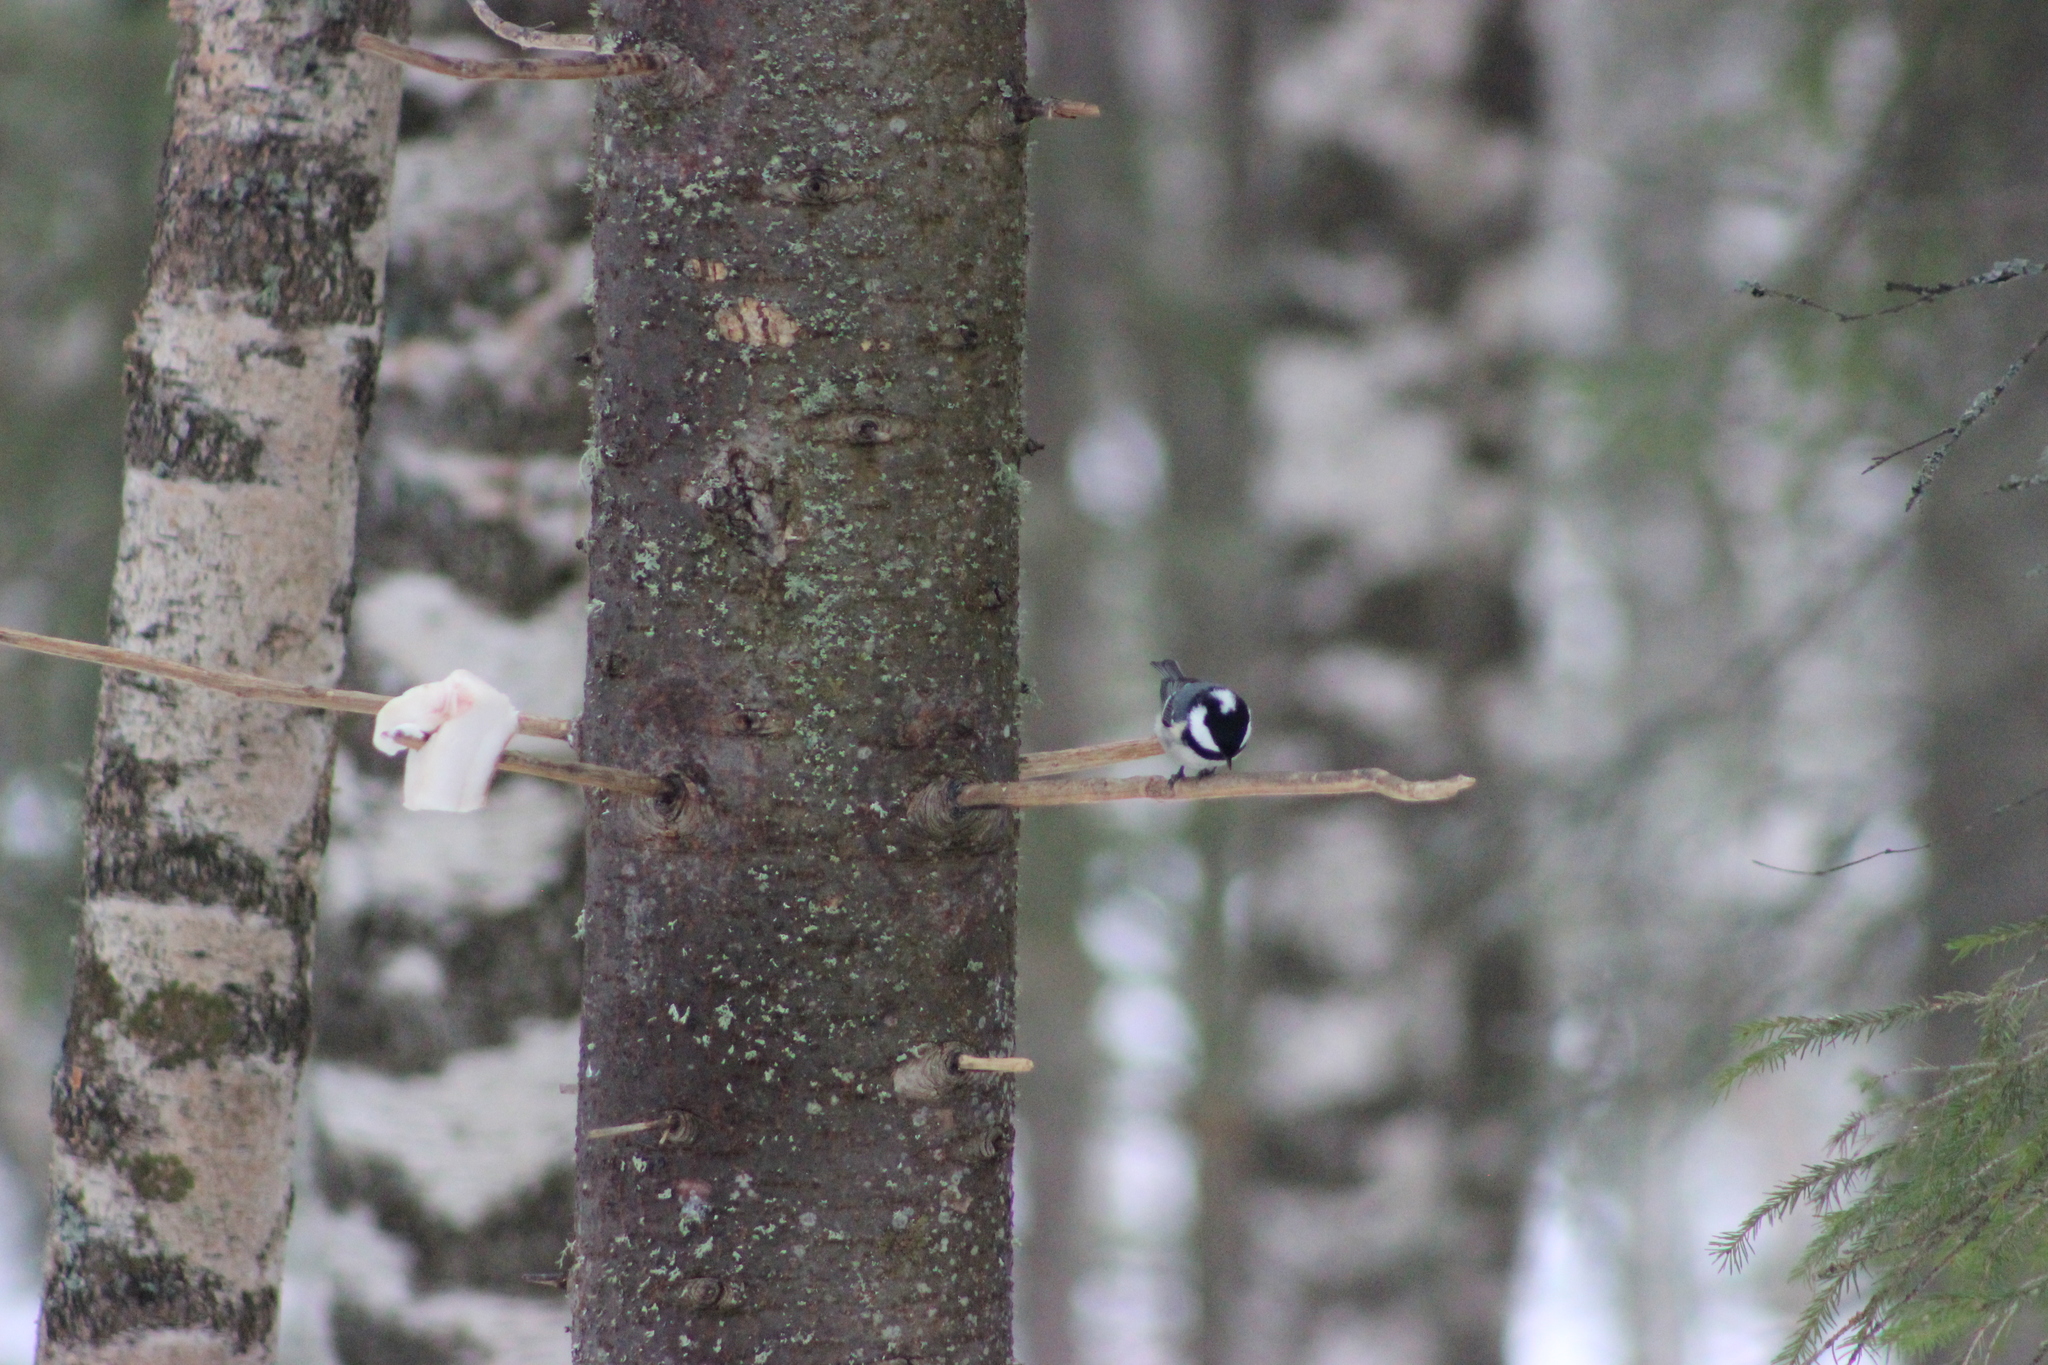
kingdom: Animalia
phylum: Chordata
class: Aves
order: Passeriformes
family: Paridae
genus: Periparus
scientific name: Periparus ater
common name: Coal tit
